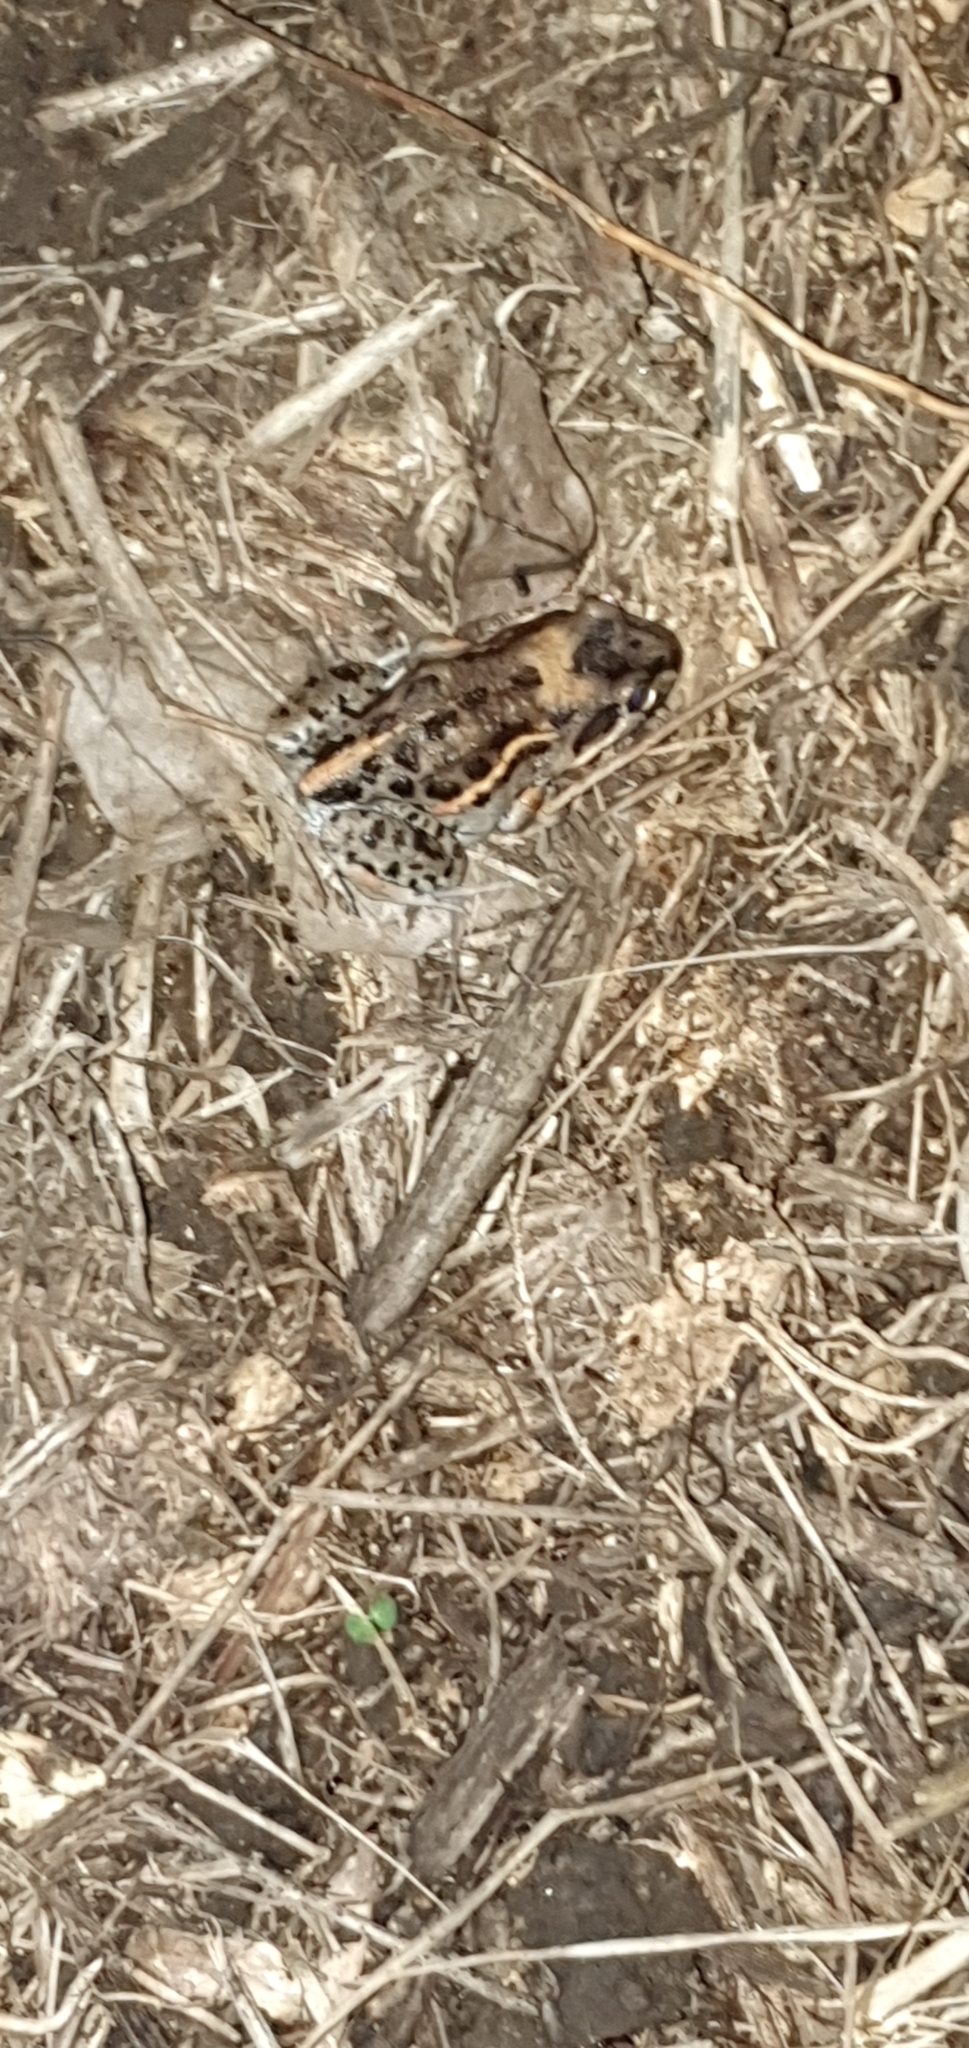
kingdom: Animalia
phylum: Chordata
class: Amphibia
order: Anura
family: Limnodynastidae
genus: Limnodynastes
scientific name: Limnodynastes salmini
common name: Salmon-striped frog
